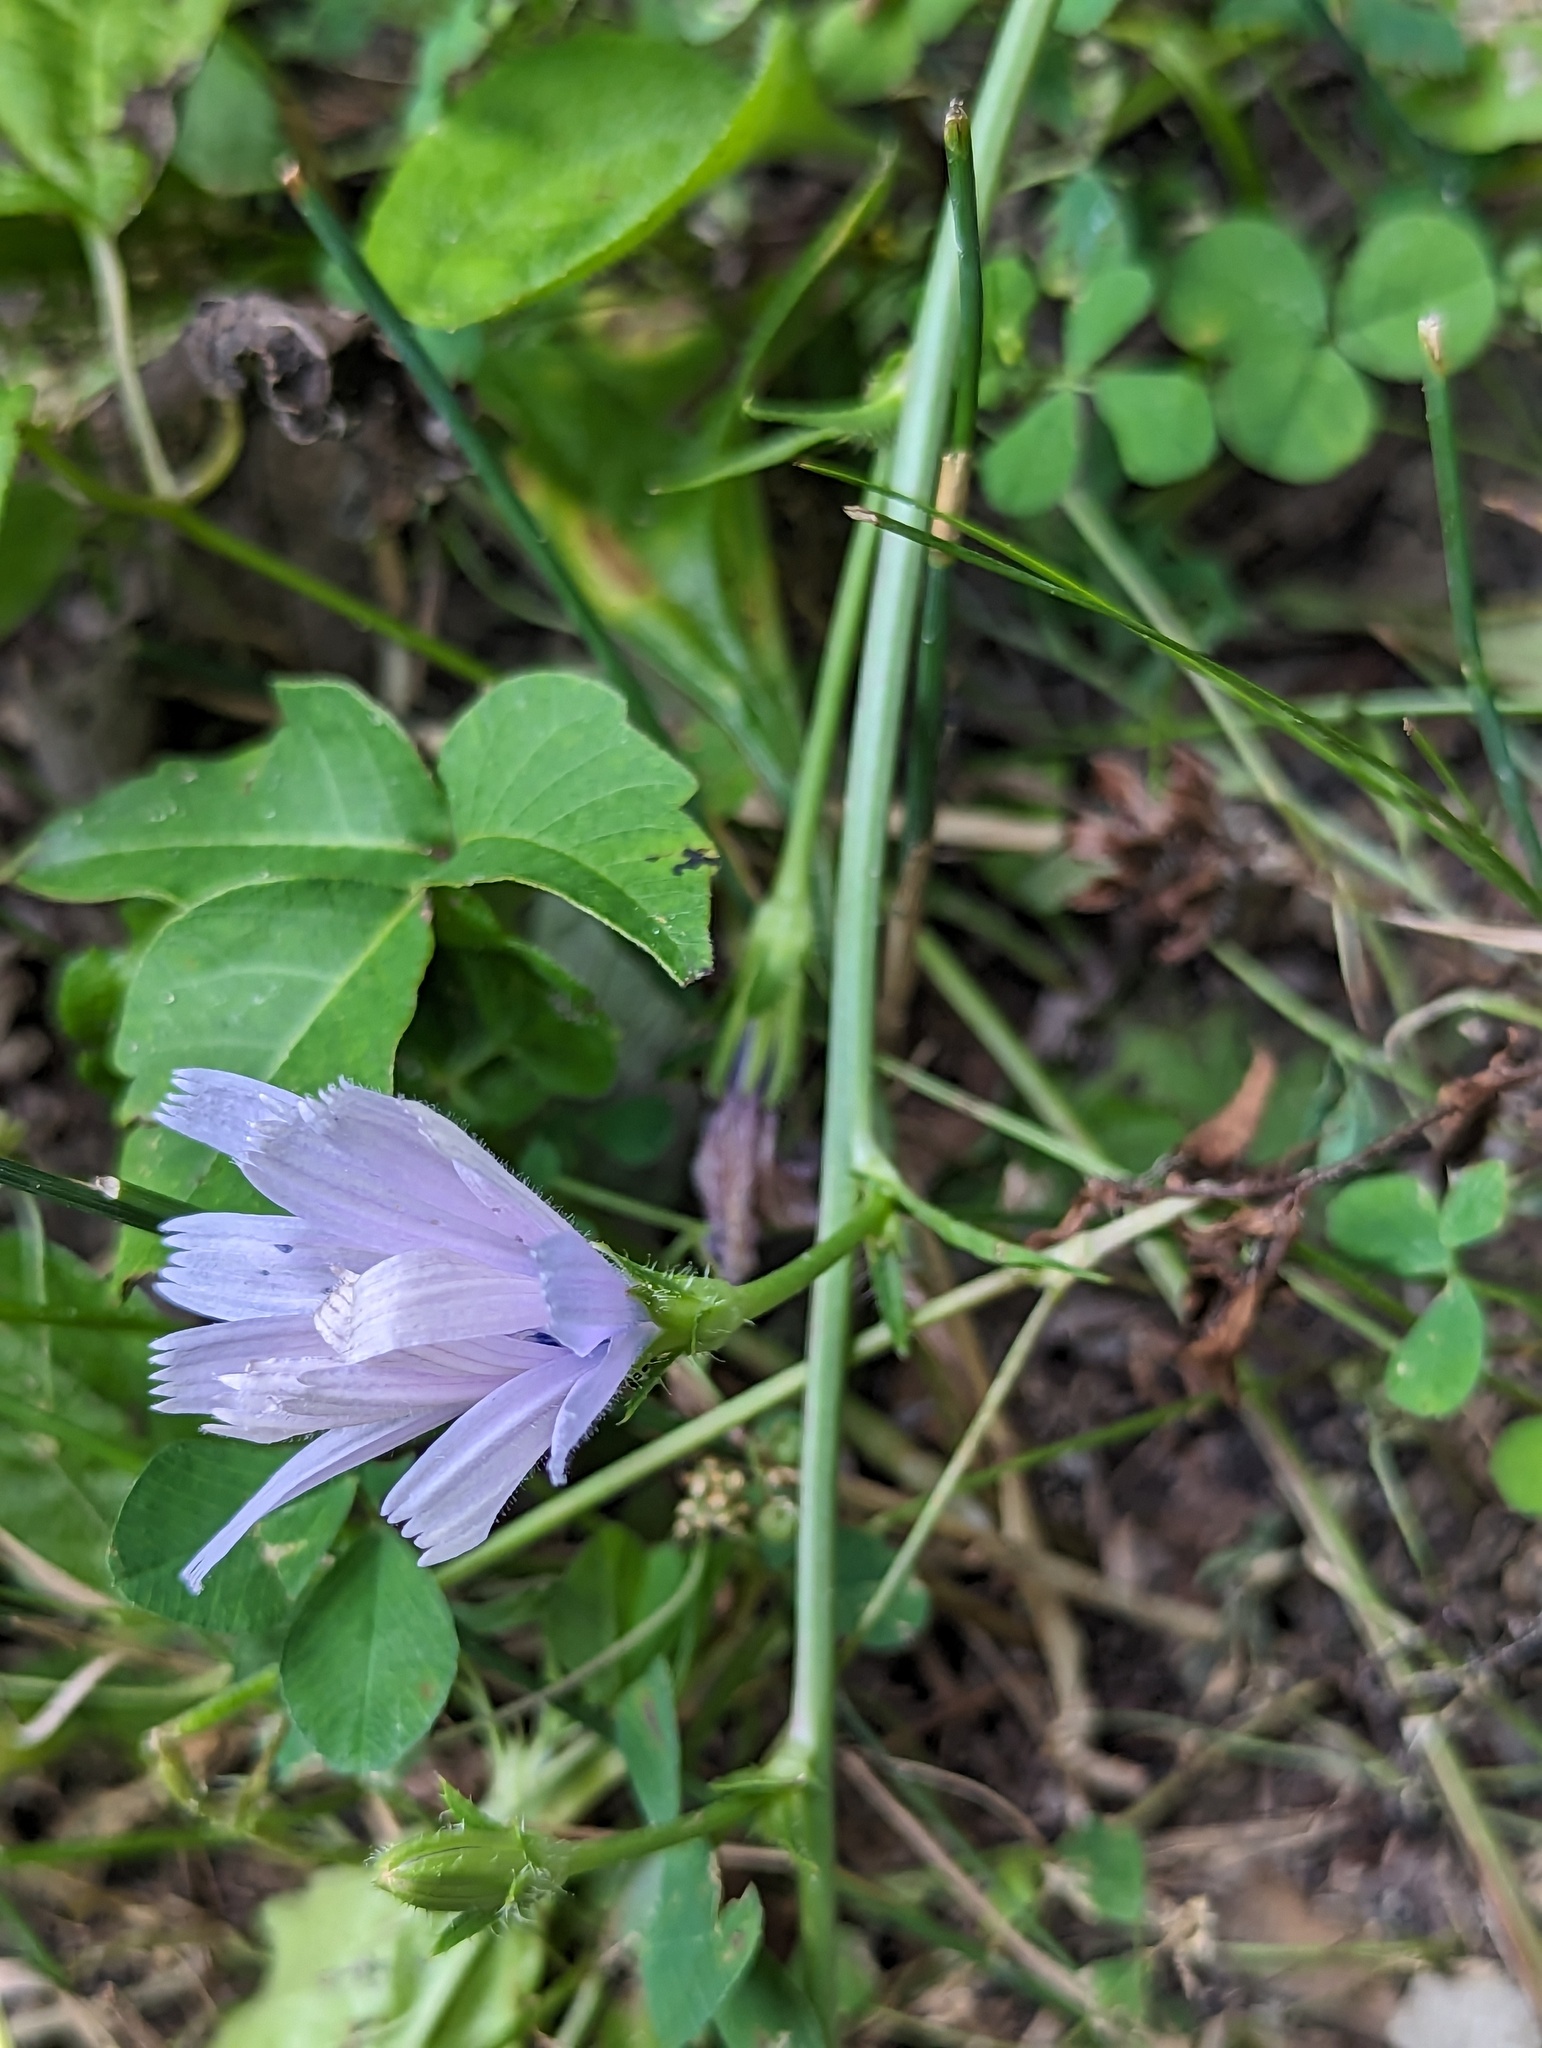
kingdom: Plantae
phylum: Tracheophyta
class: Magnoliopsida
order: Asterales
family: Asteraceae
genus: Cichorium
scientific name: Cichorium intybus
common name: Chicory
